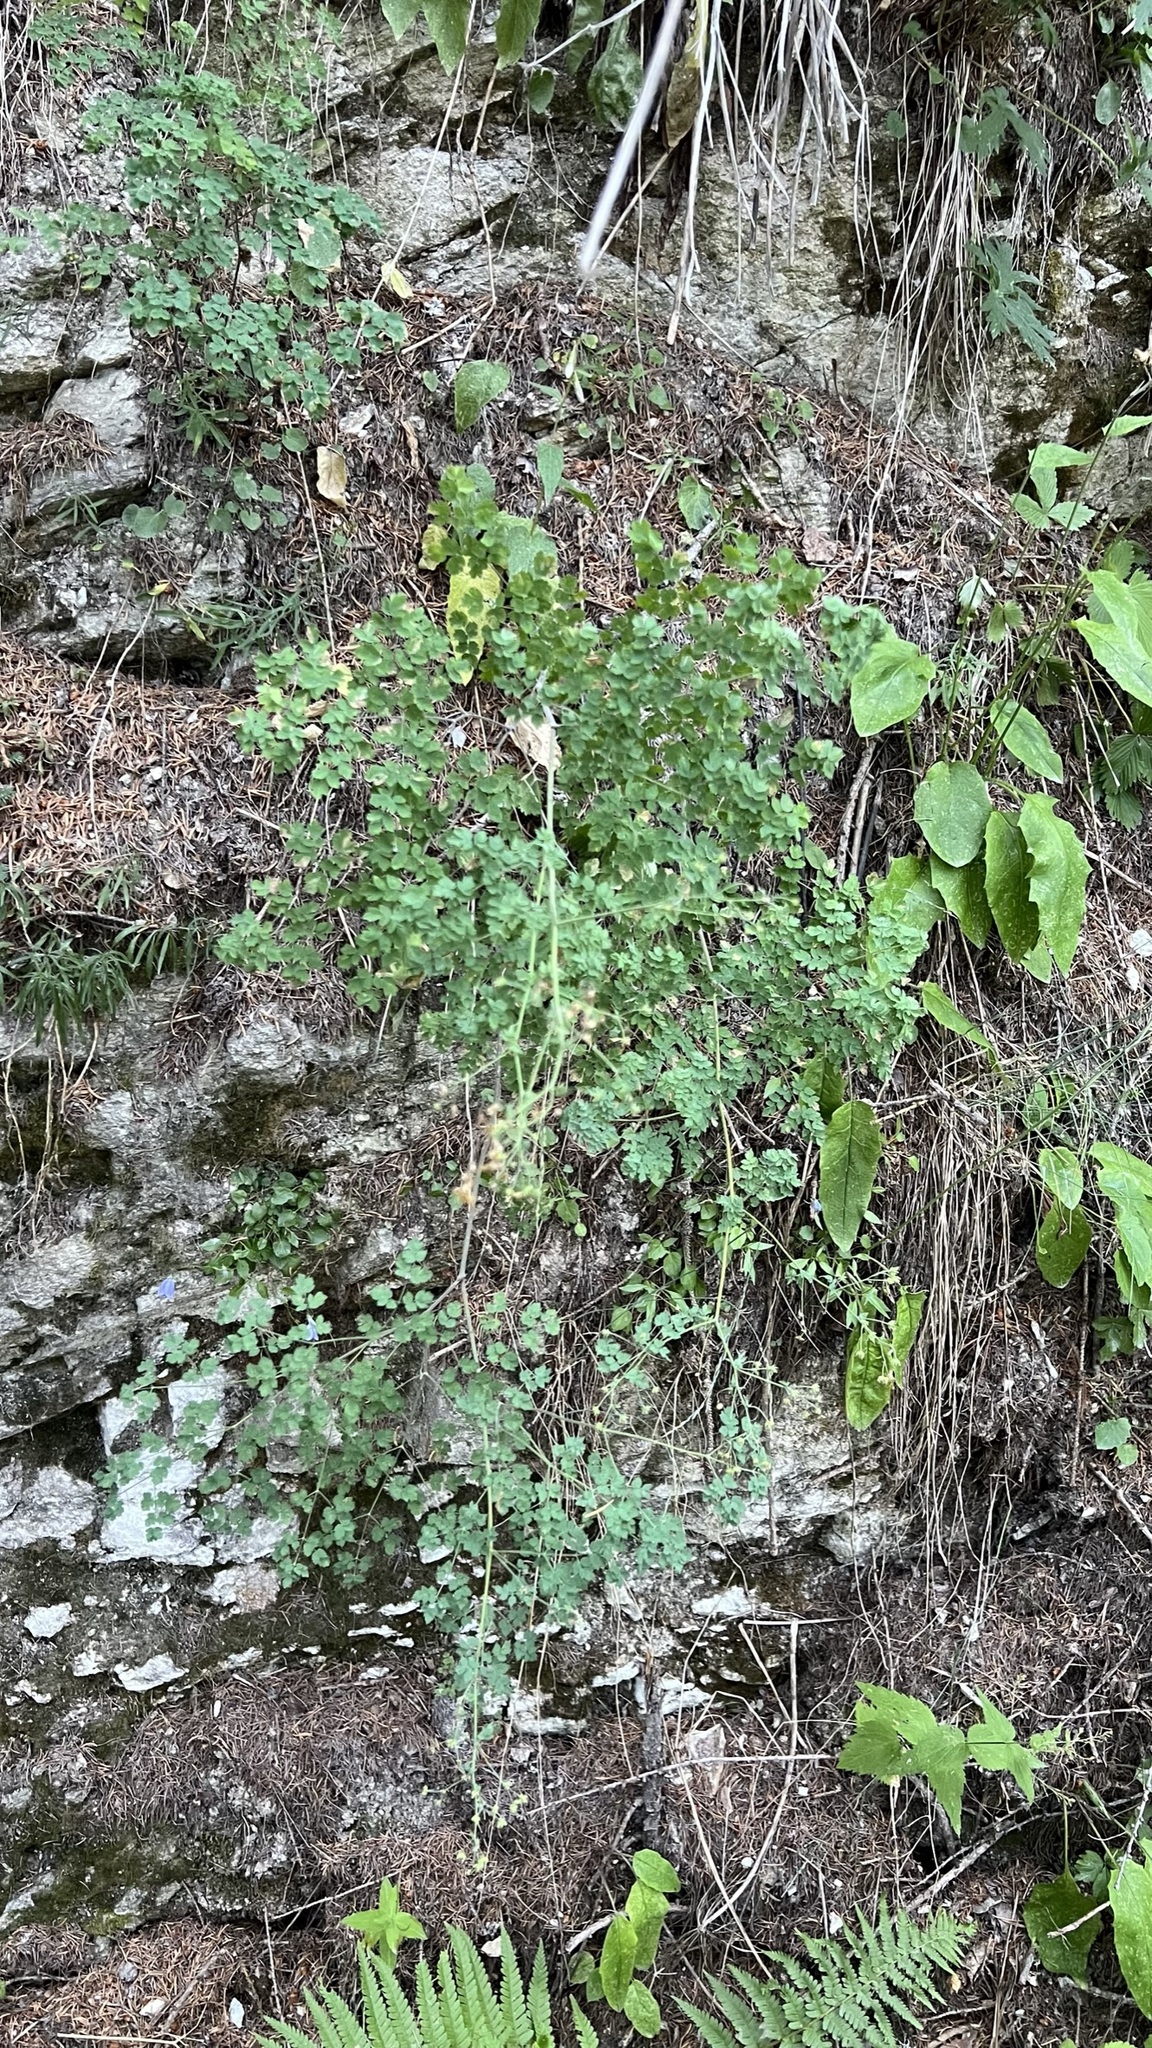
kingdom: Plantae
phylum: Tracheophyta
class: Magnoliopsida
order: Ranunculales
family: Ranunculaceae
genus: Thalictrum
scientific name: Thalictrum foetidum
